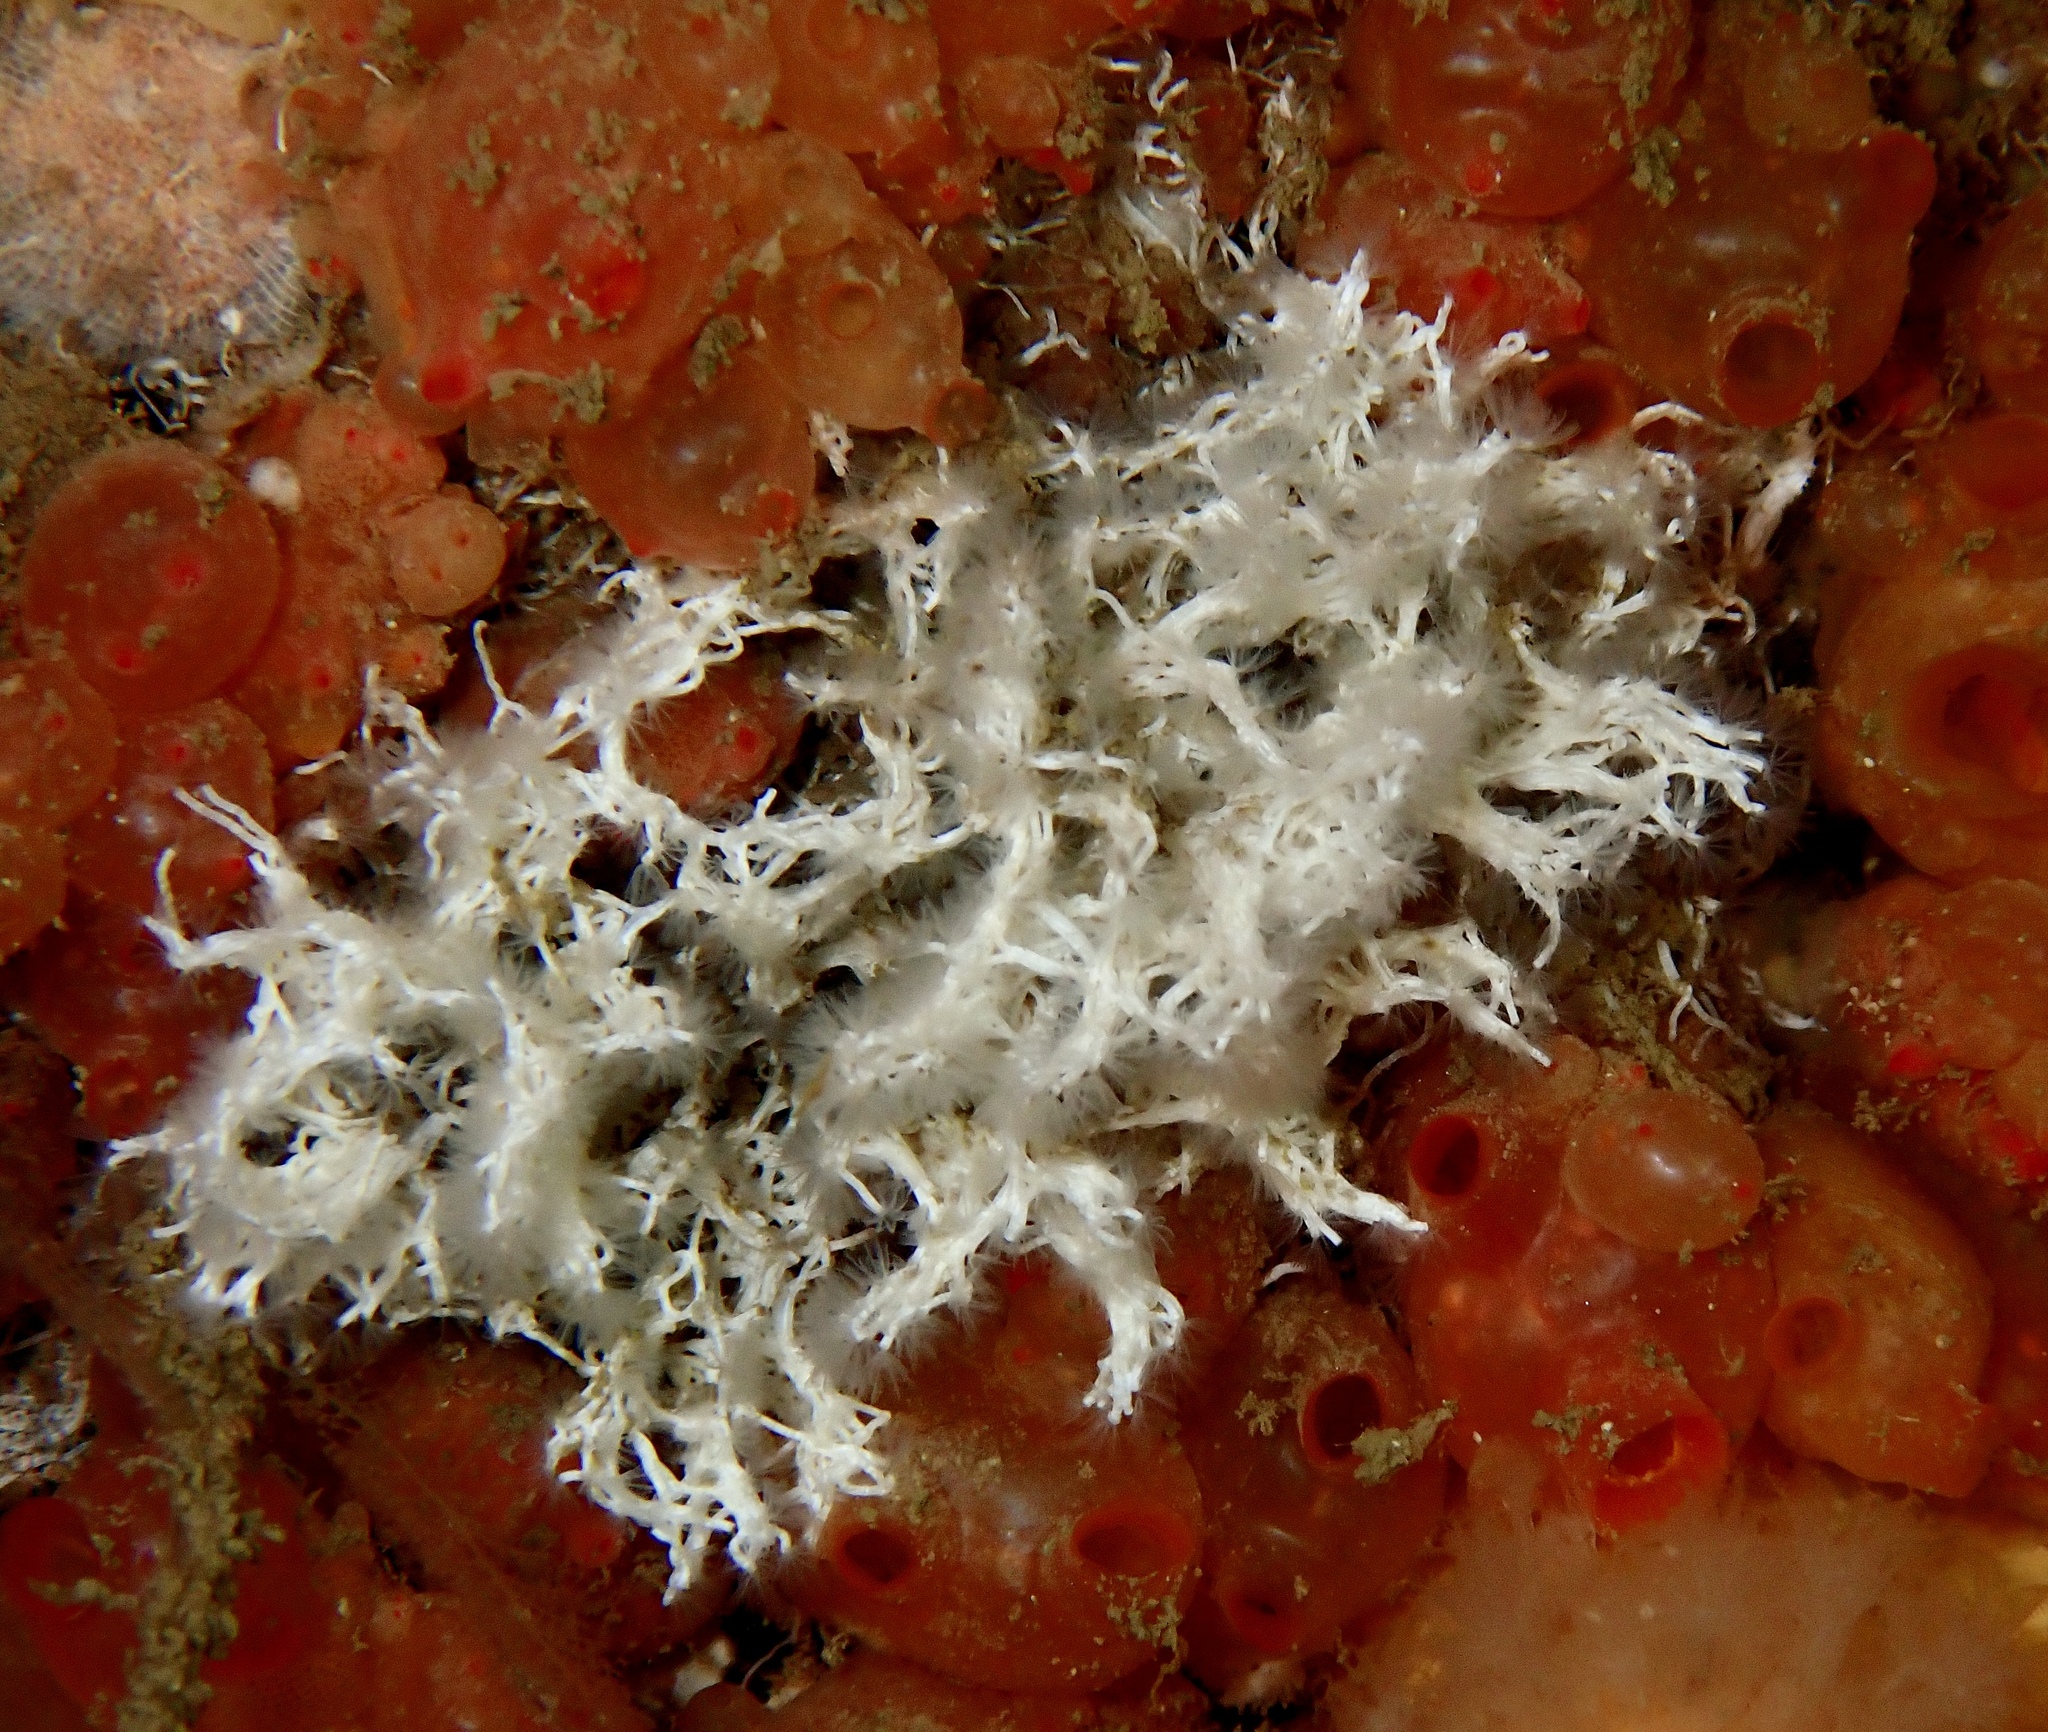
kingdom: Animalia
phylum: Annelida
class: Polychaeta
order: Sabellida
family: Serpulidae
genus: Salmacina
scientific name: Salmacina dysteri
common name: Coral worm
